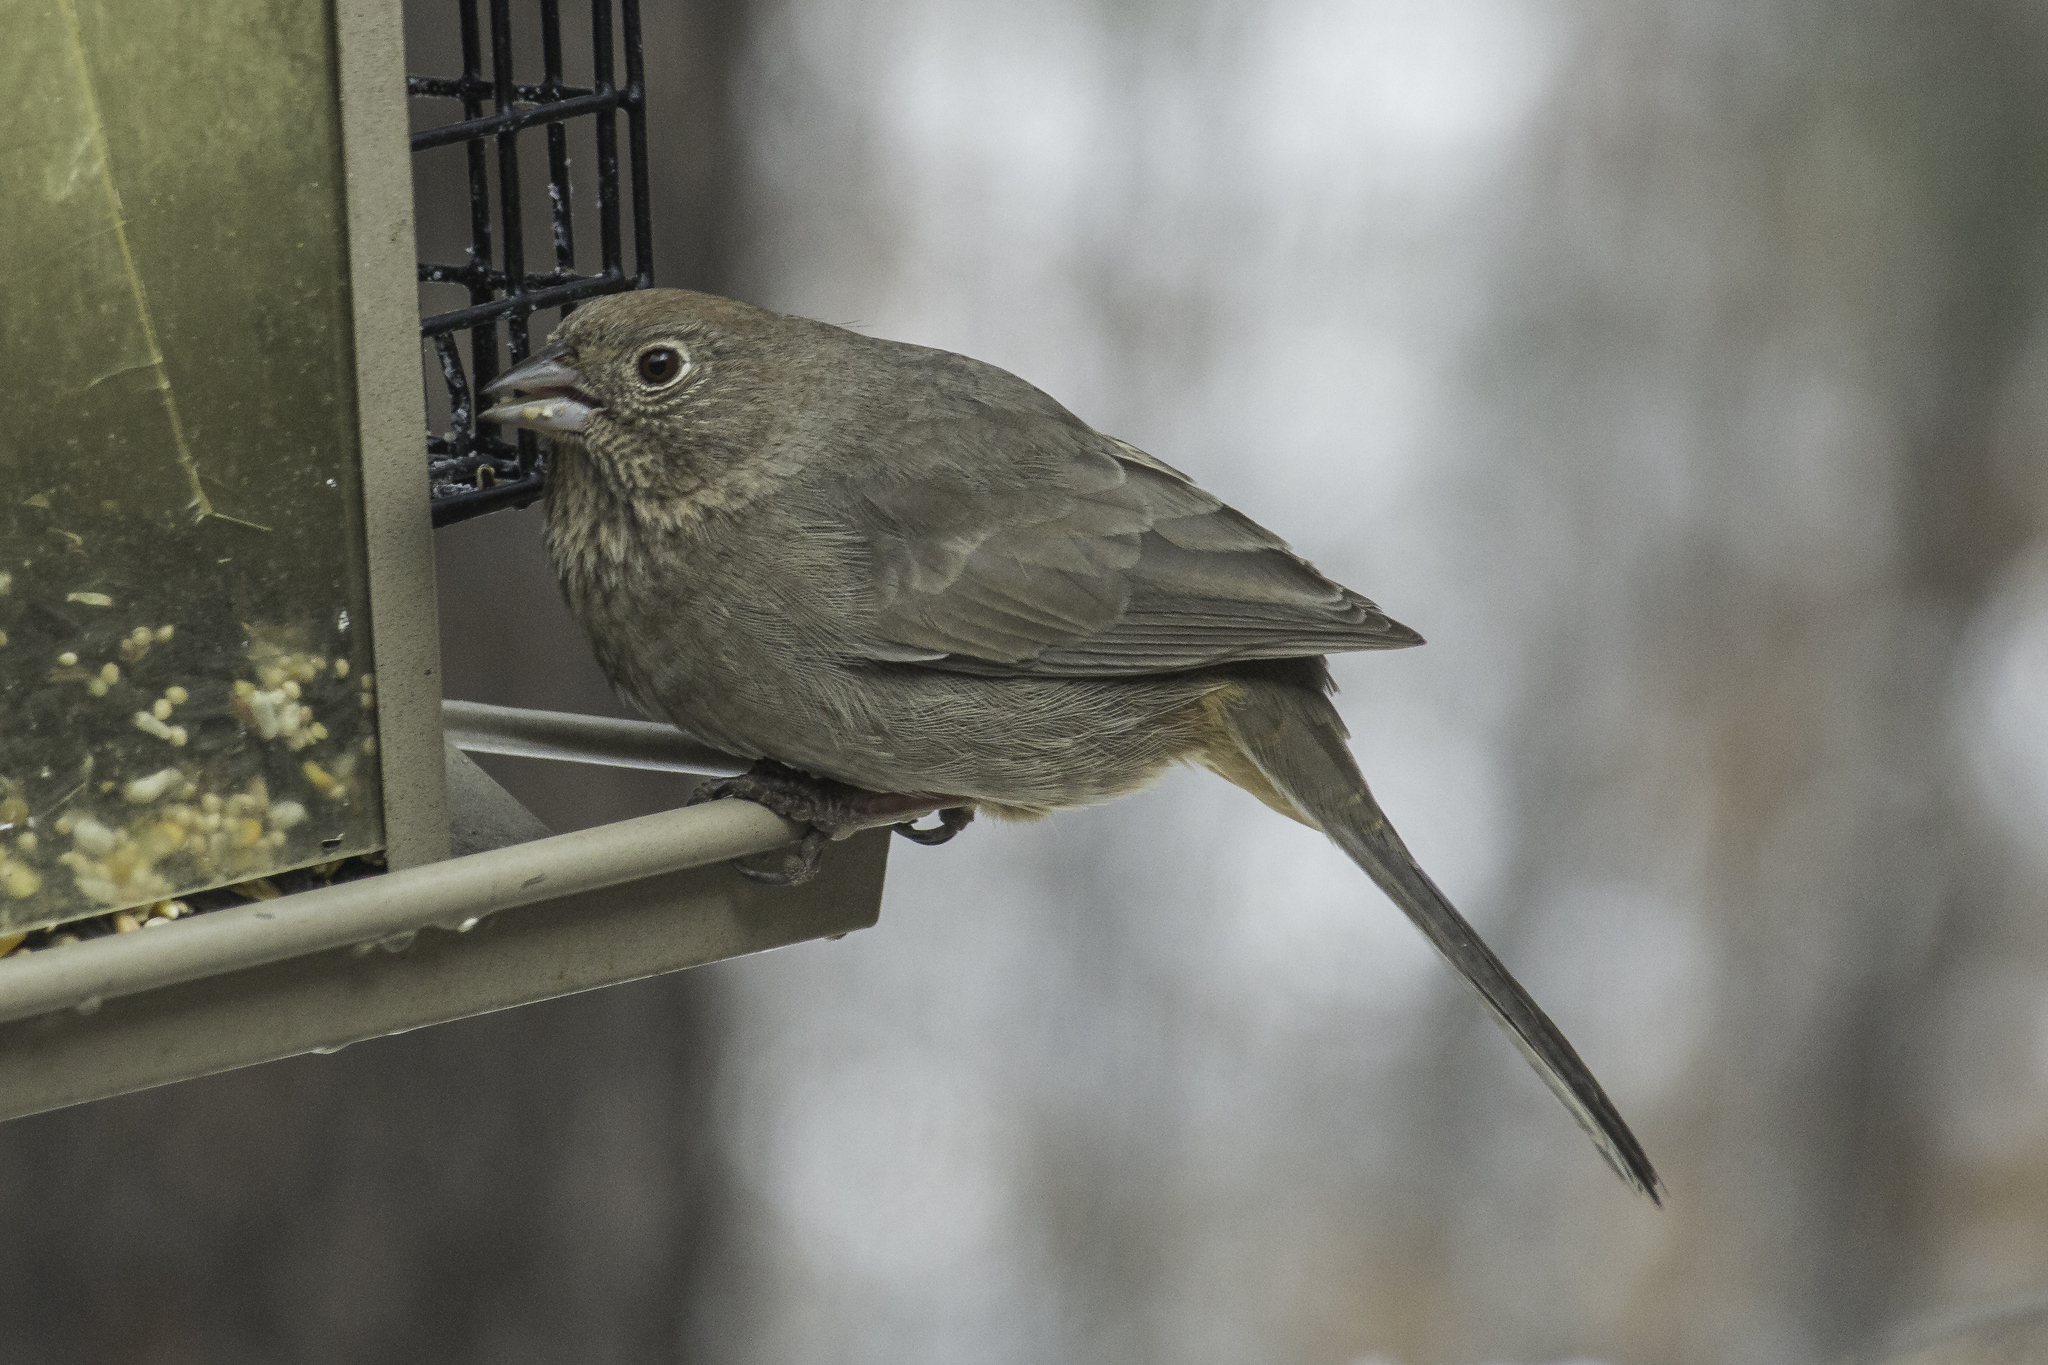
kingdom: Animalia
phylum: Chordata
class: Aves
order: Passeriformes
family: Passerellidae
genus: Melozone
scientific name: Melozone fusca
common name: Canyon towhee
